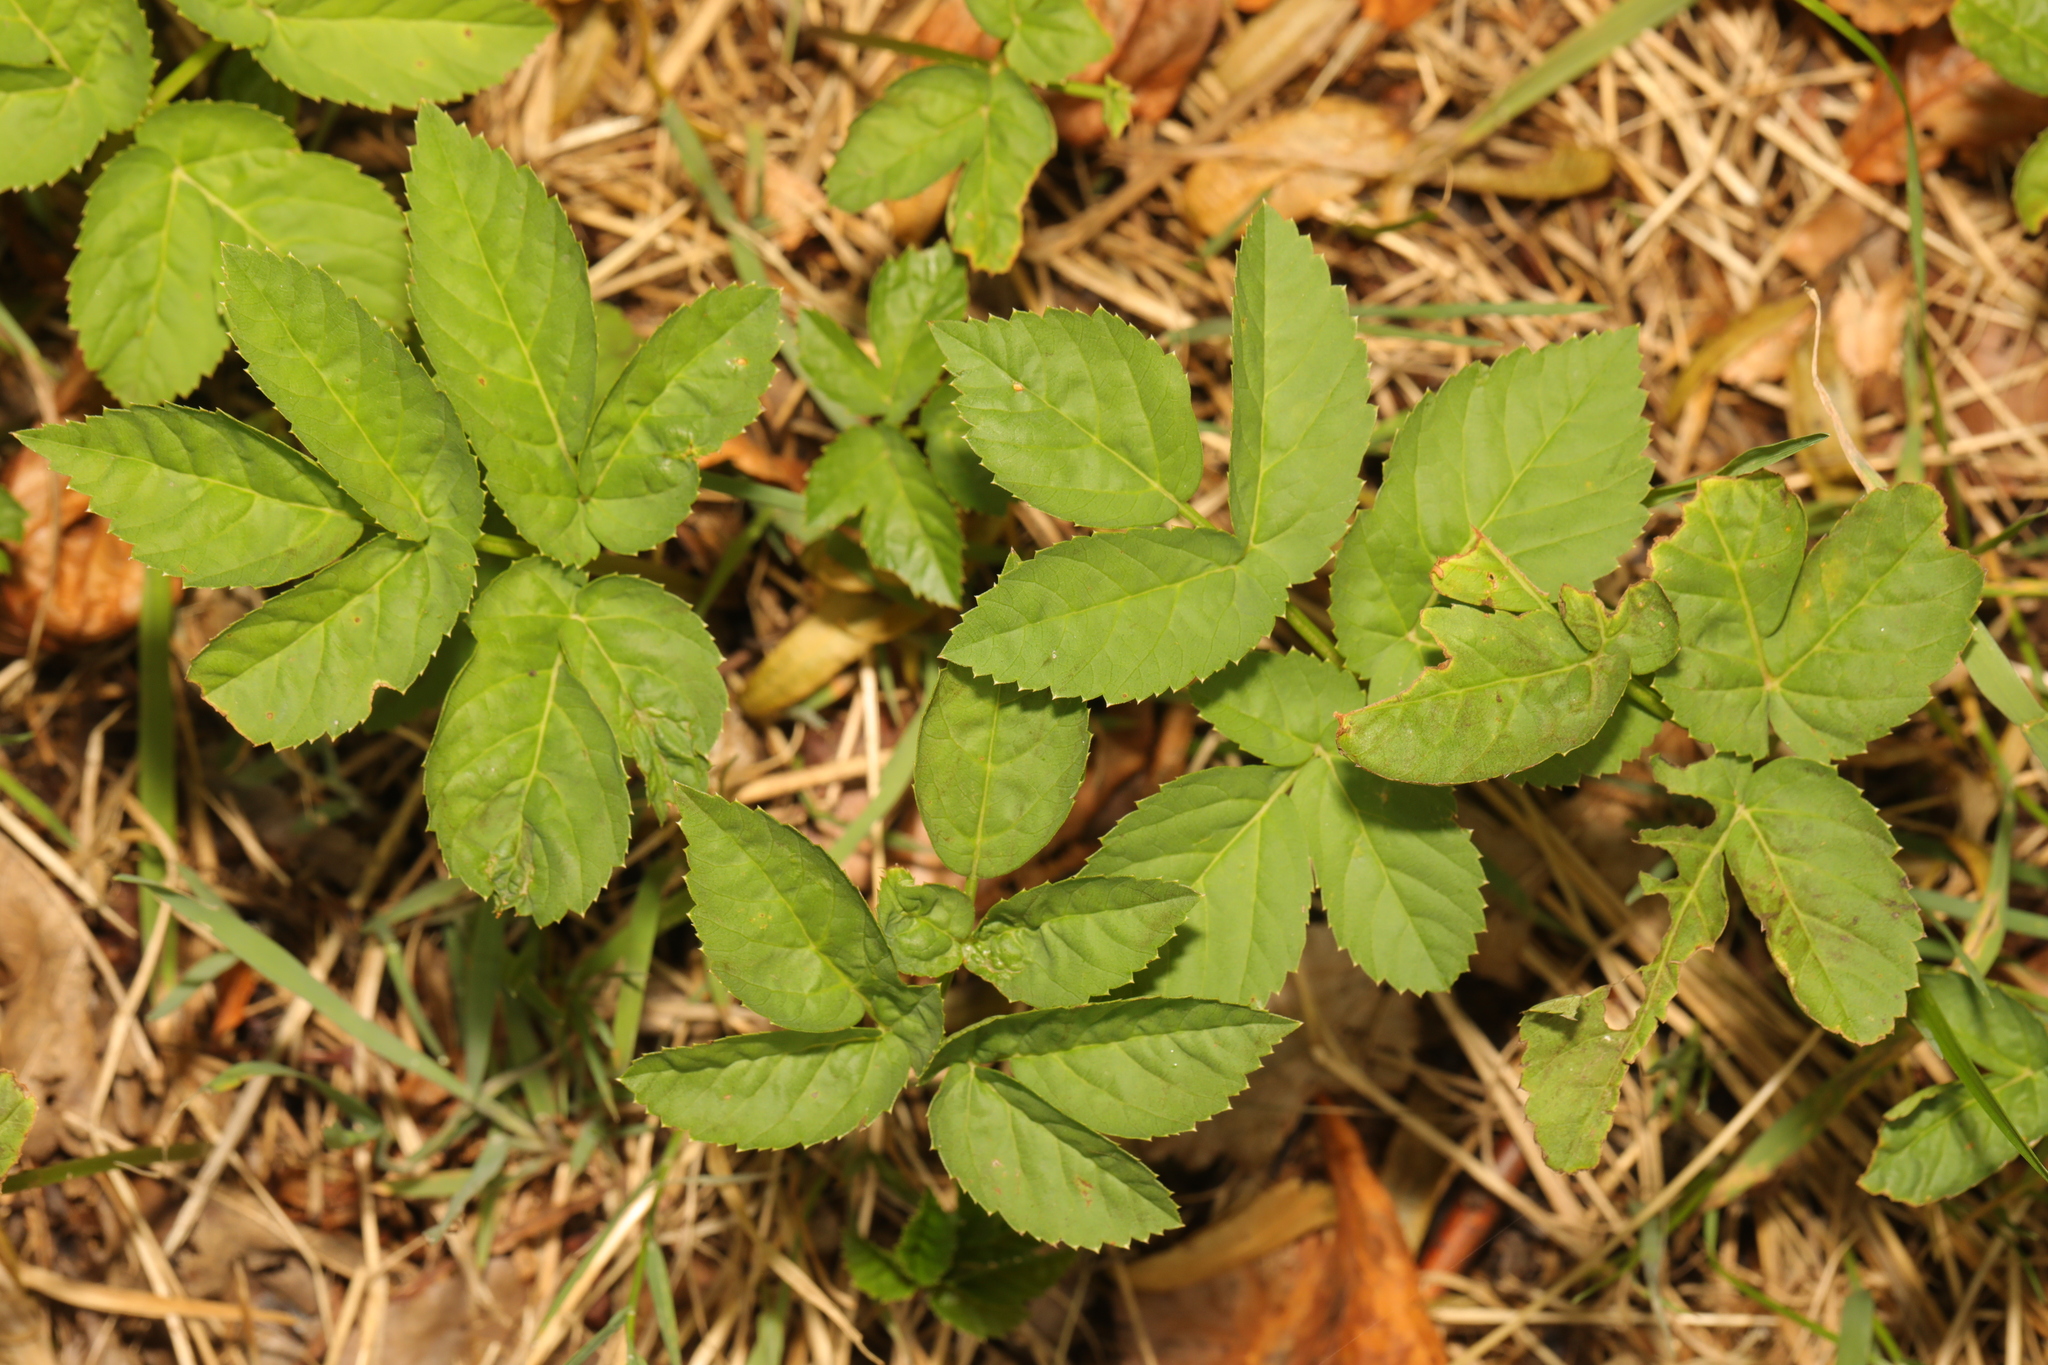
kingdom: Plantae
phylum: Tracheophyta
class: Magnoliopsida
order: Apiales
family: Apiaceae
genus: Aegopodium
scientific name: Aegopodium podagraria
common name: Ground-elder
